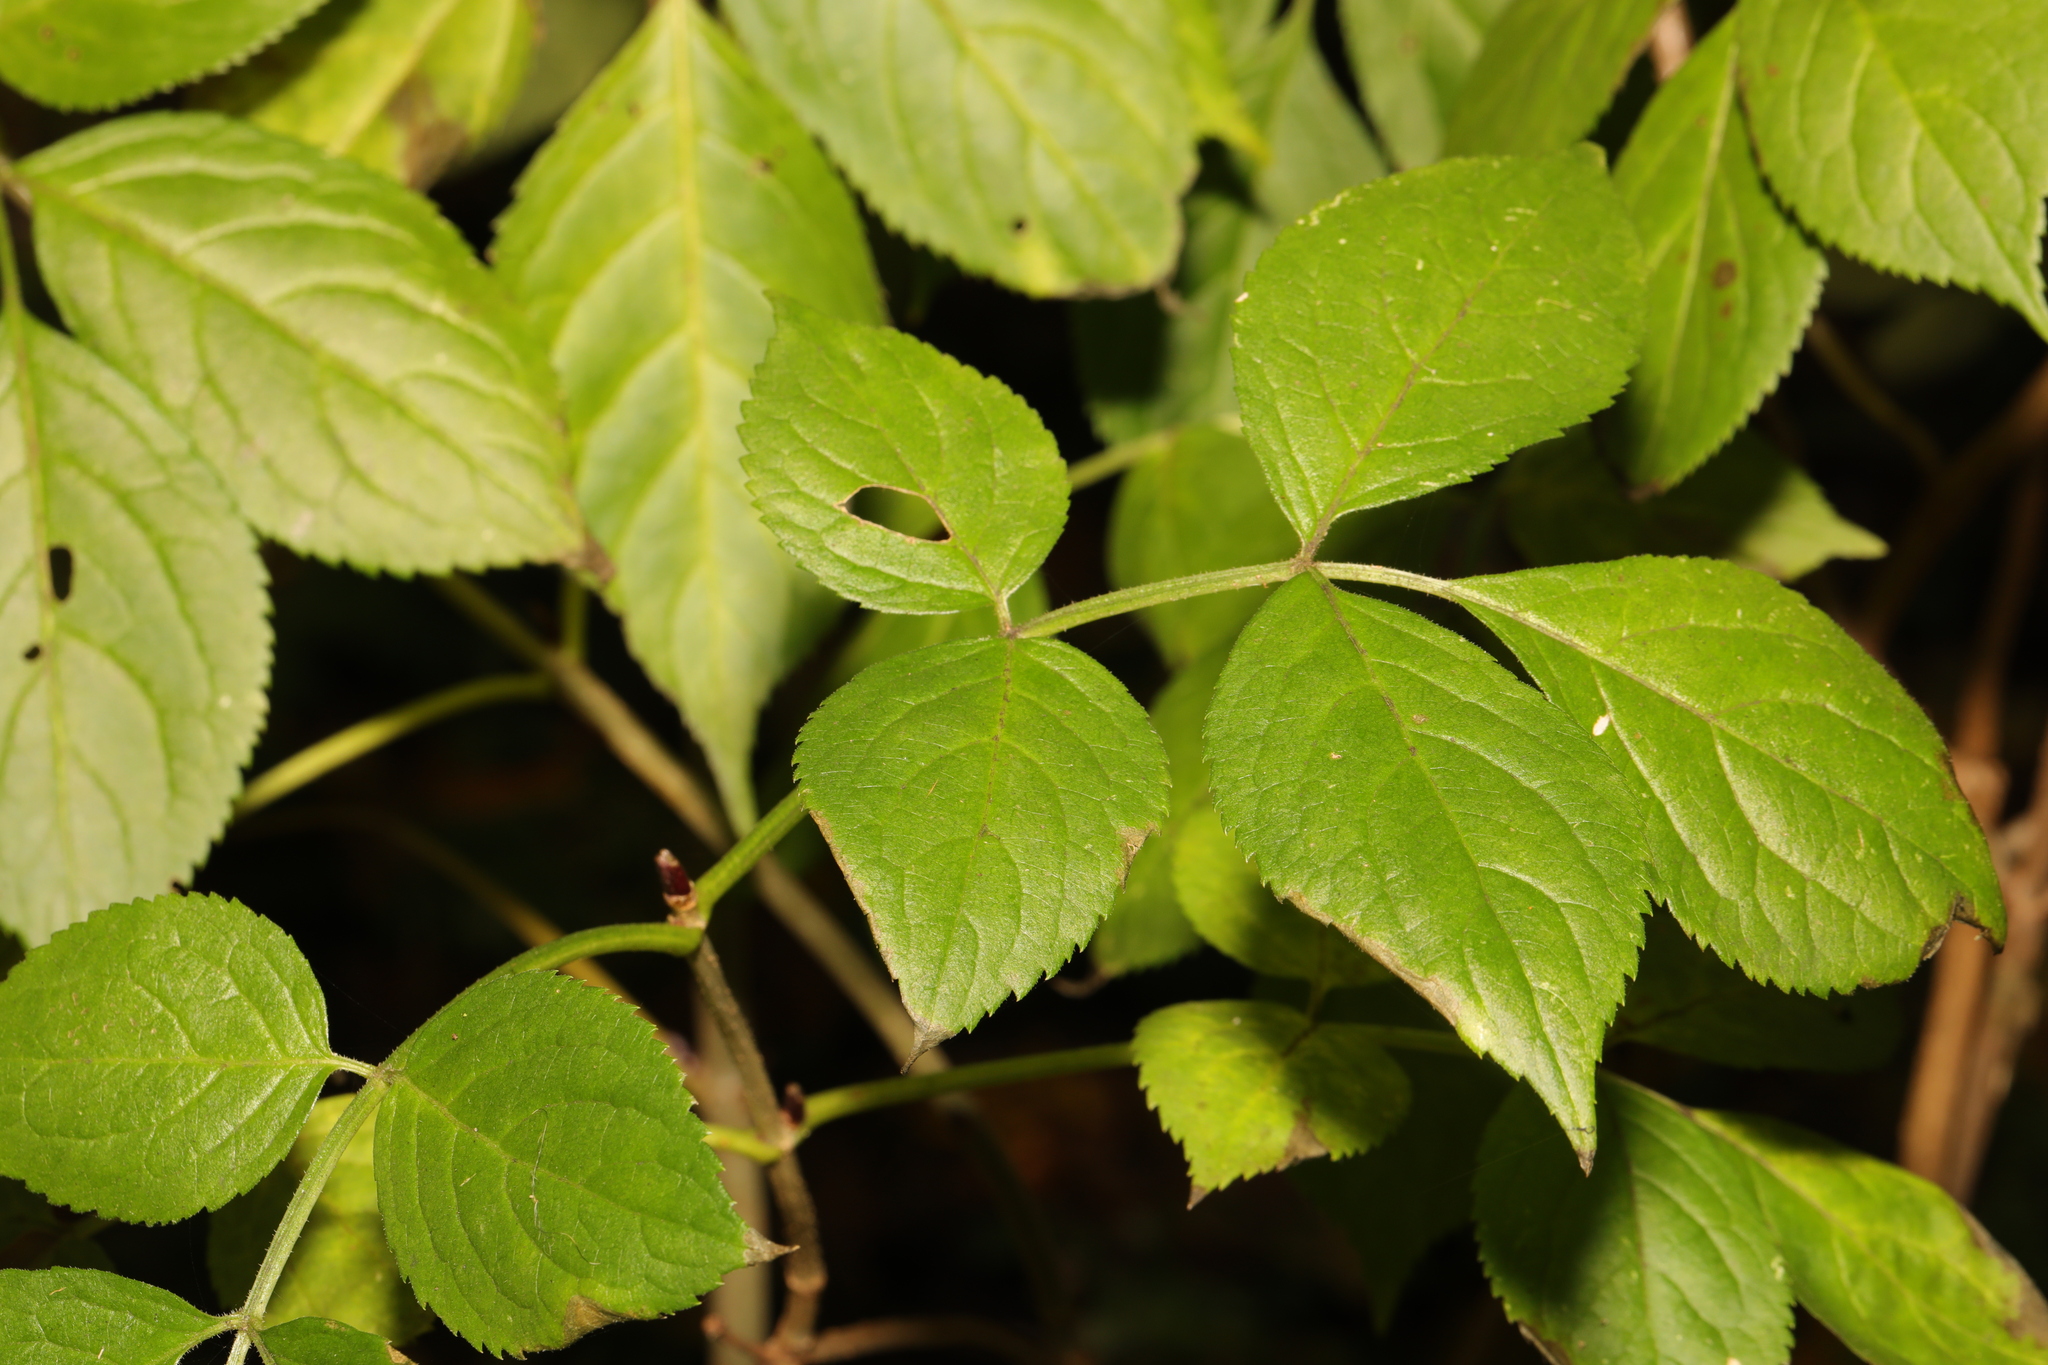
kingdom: Plantae
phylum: Tracheophyta
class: Magnoliopsida
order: Dipsacales
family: Viburnaceae
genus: Sambucus
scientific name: Sambucus nigra
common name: Elder
